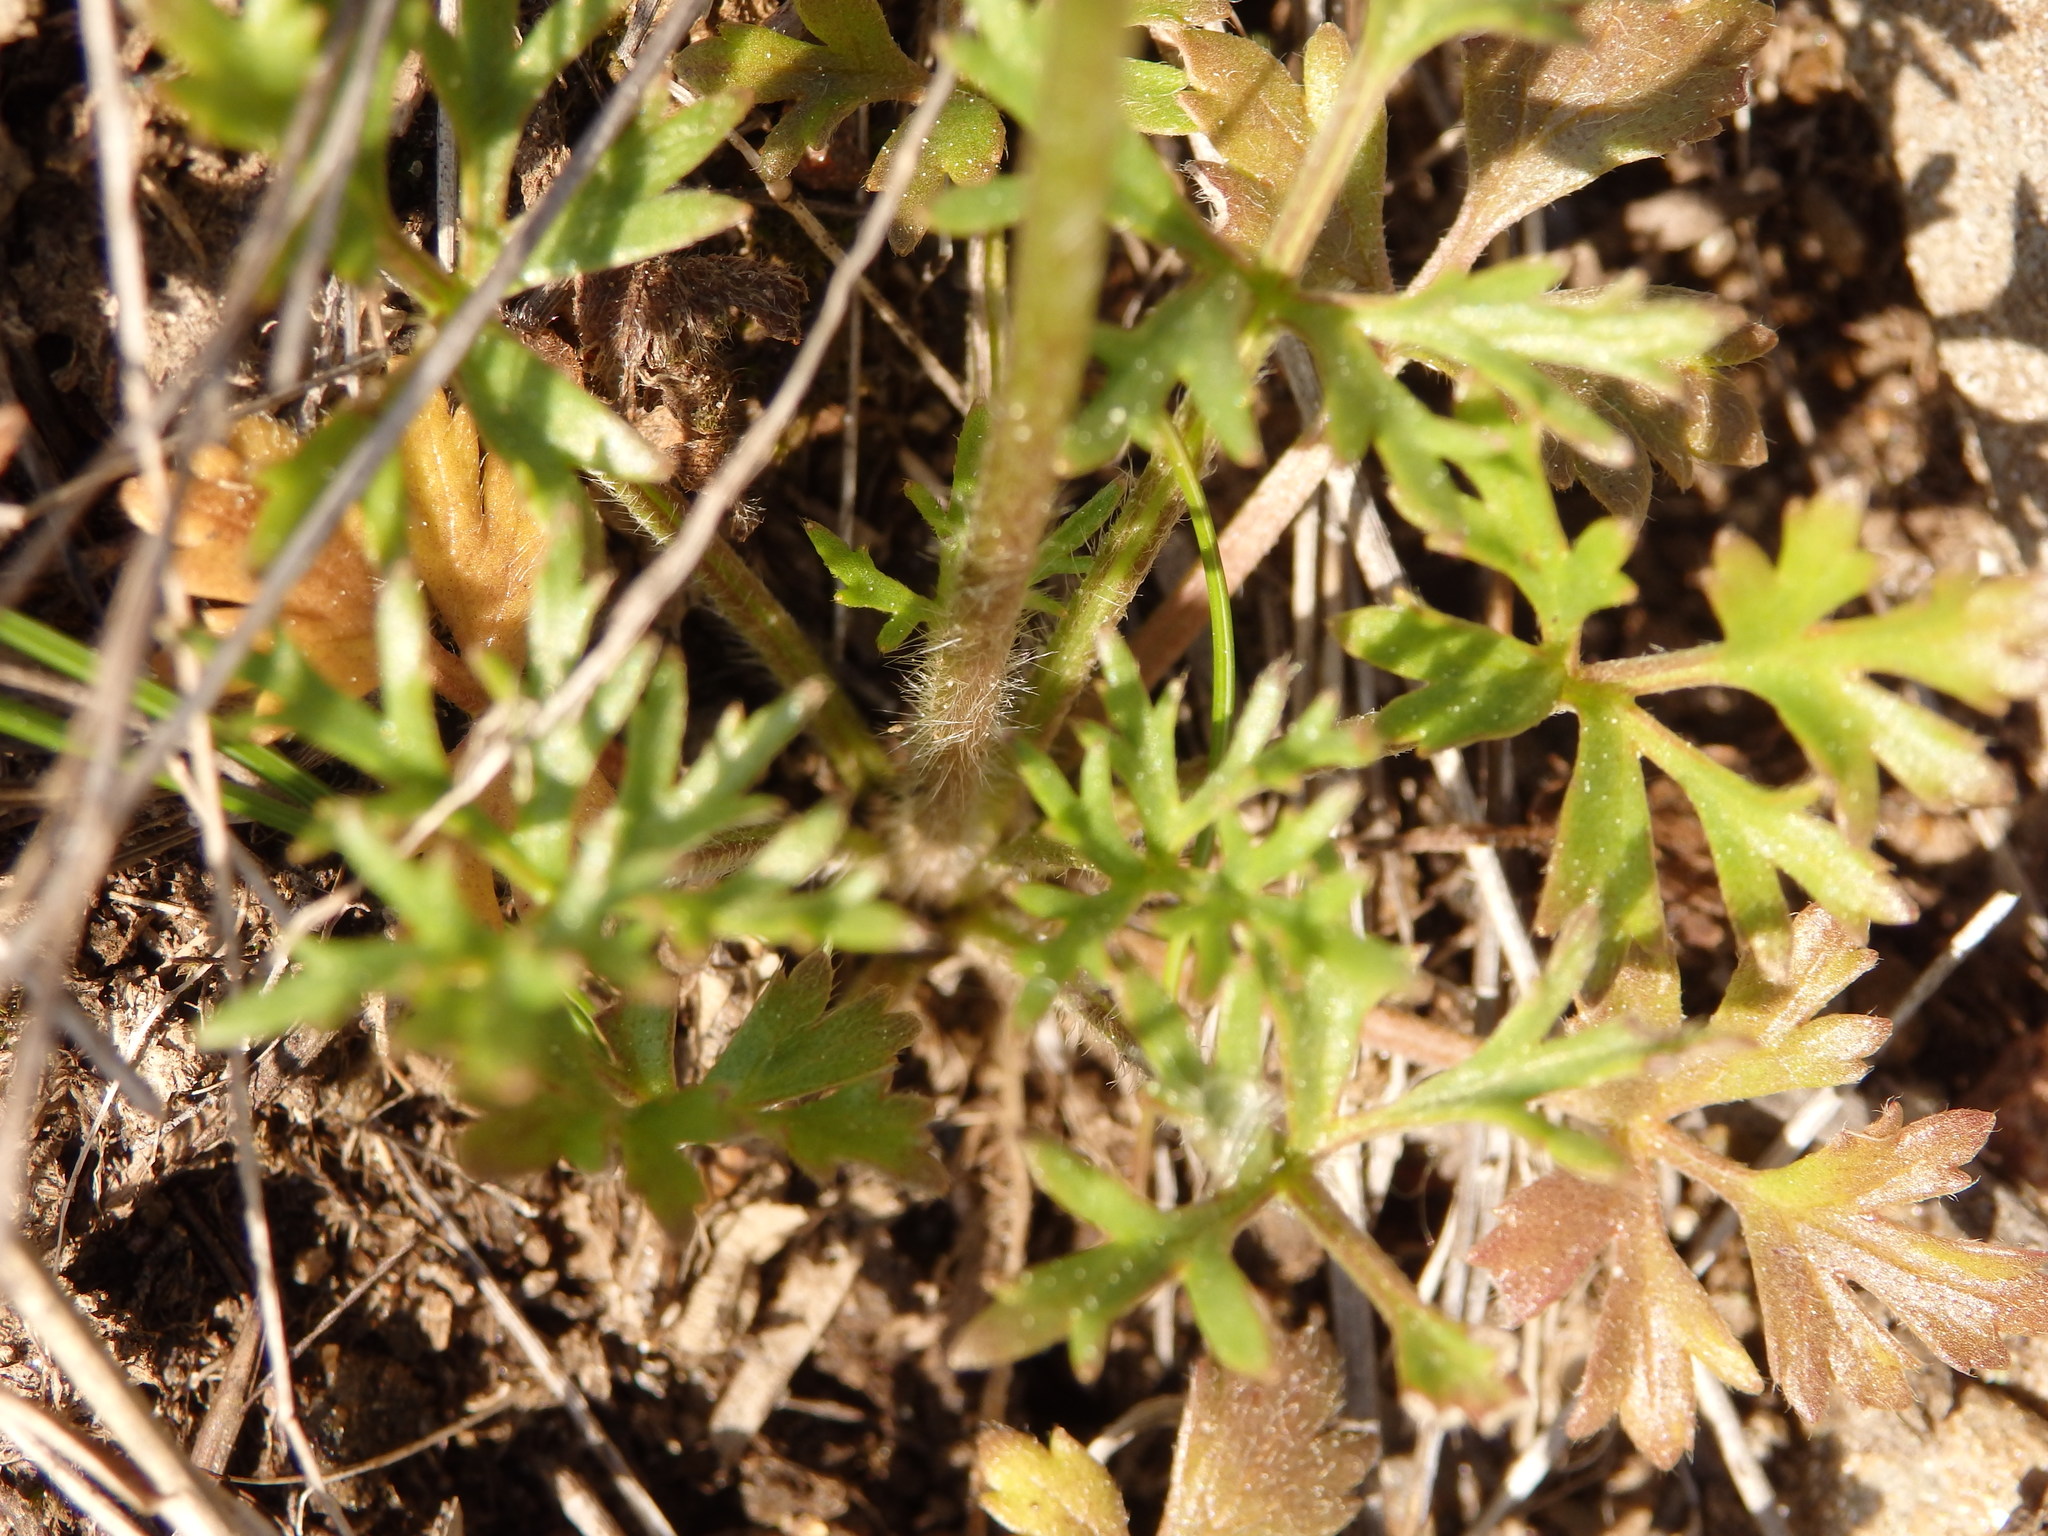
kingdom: Plantae
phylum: Tracheophyta
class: Magnoliopsida
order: Ranunculales
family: Ranunculaceae
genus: Ranunculus
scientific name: Ranunculus paludosus
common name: Jersey buttercup
